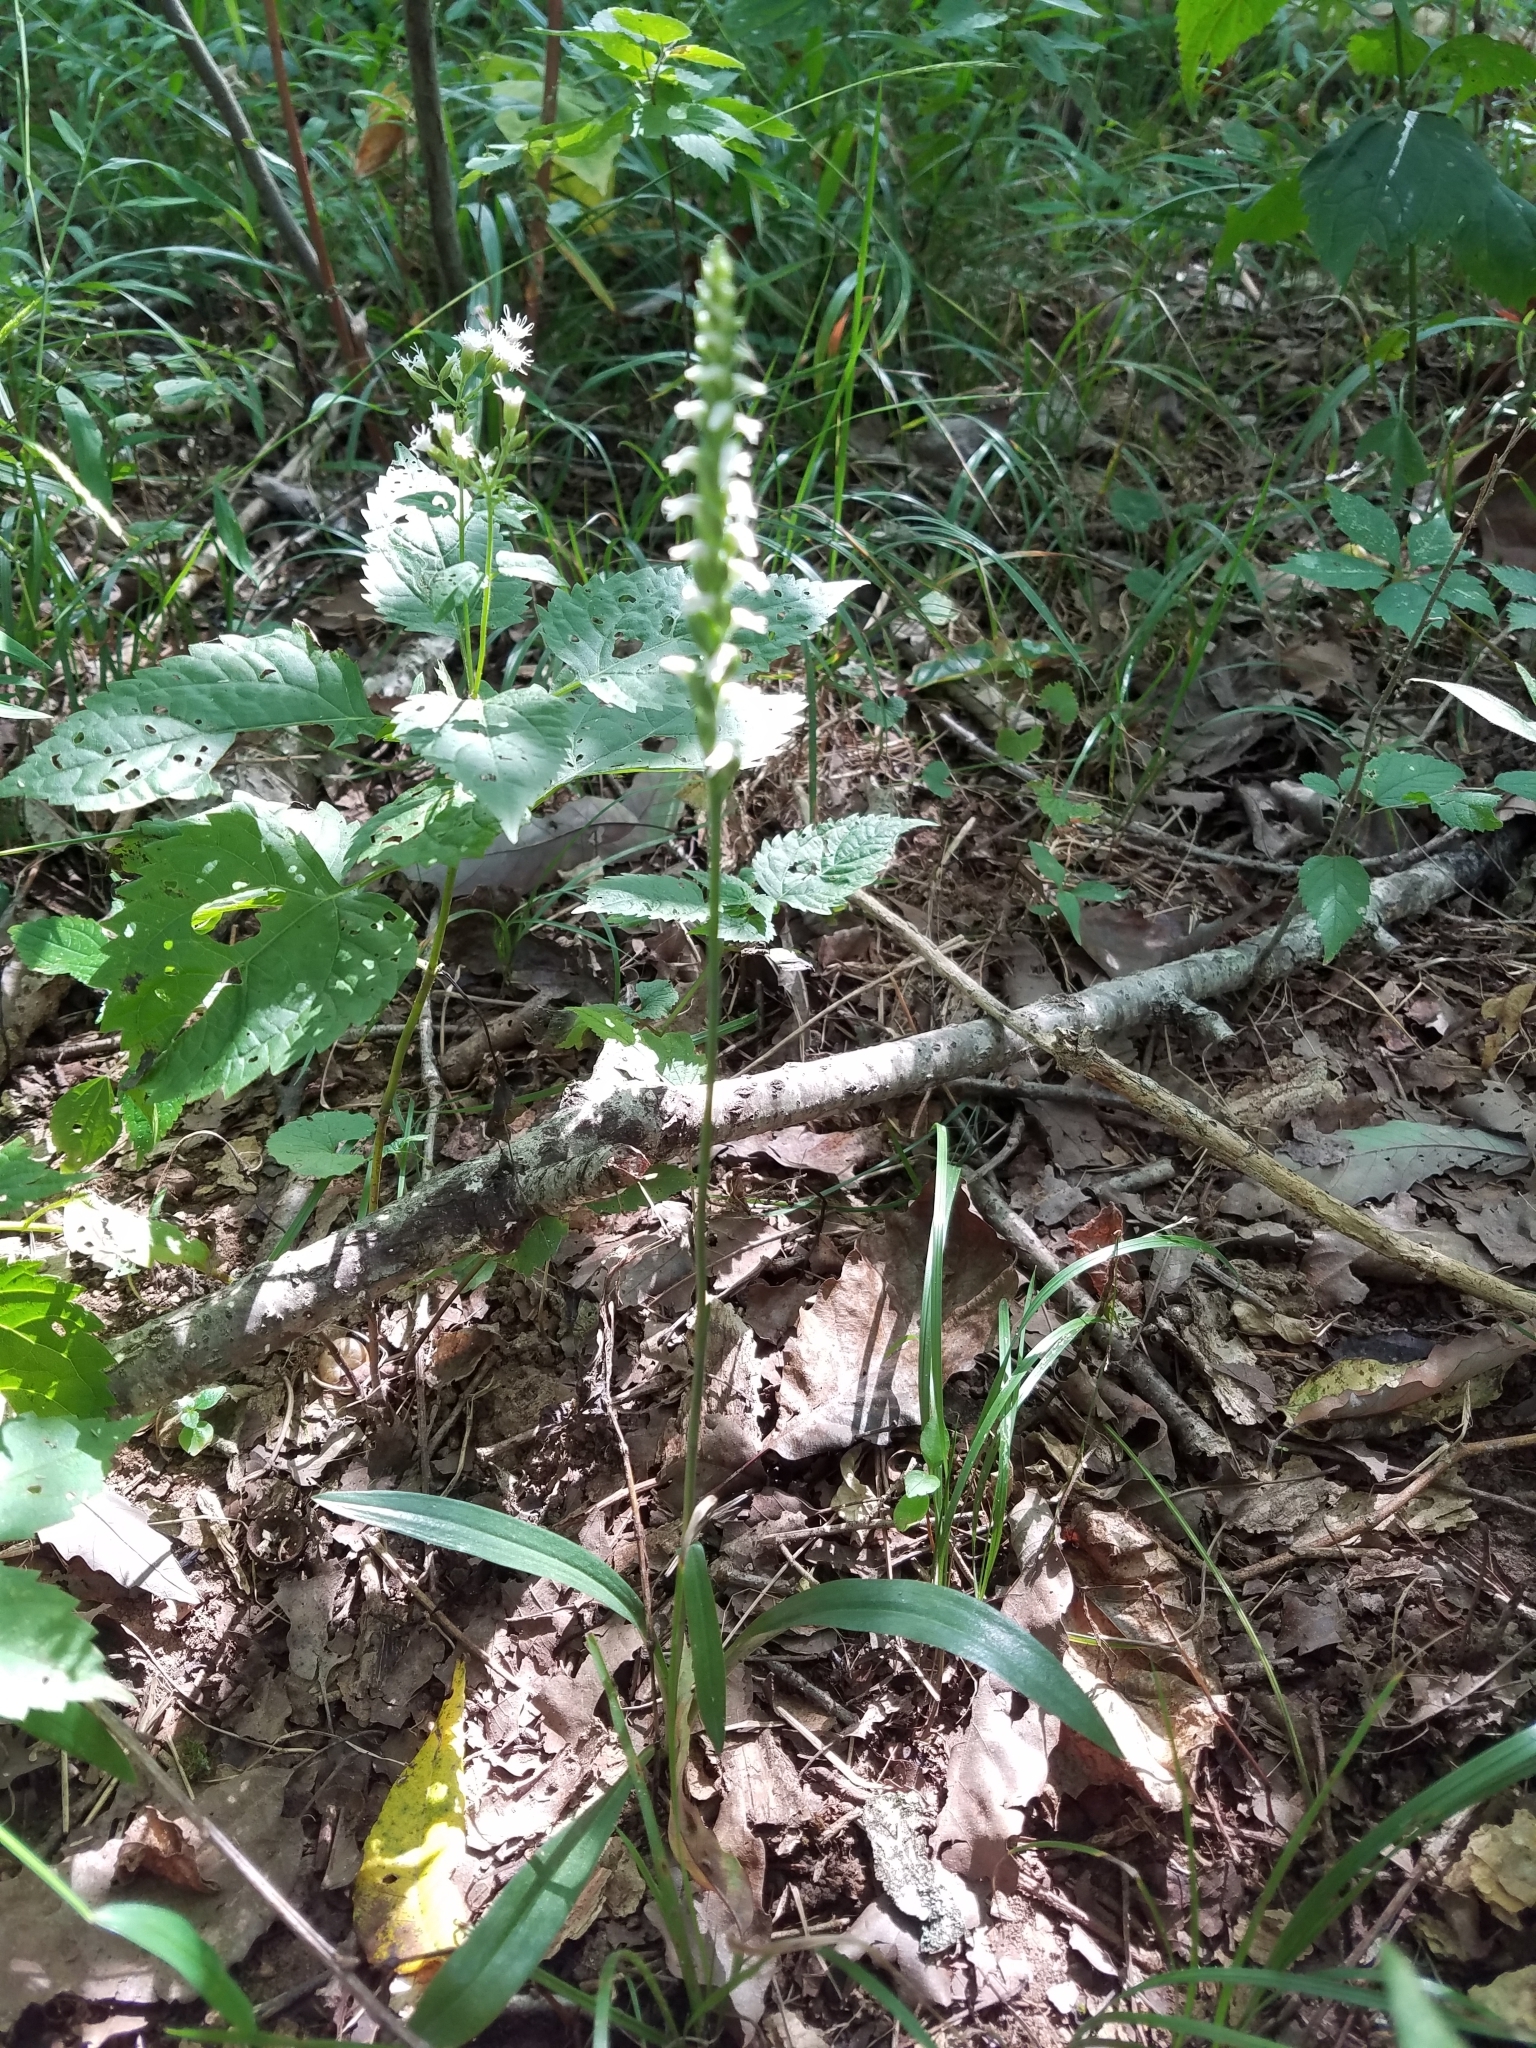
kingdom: Plantae
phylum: Tracheophyta
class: Liliopsida
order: Asparagales
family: Orchidaceae
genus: Spiranthes
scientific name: Spiranthes ovalis
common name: October ladies'-tresses
